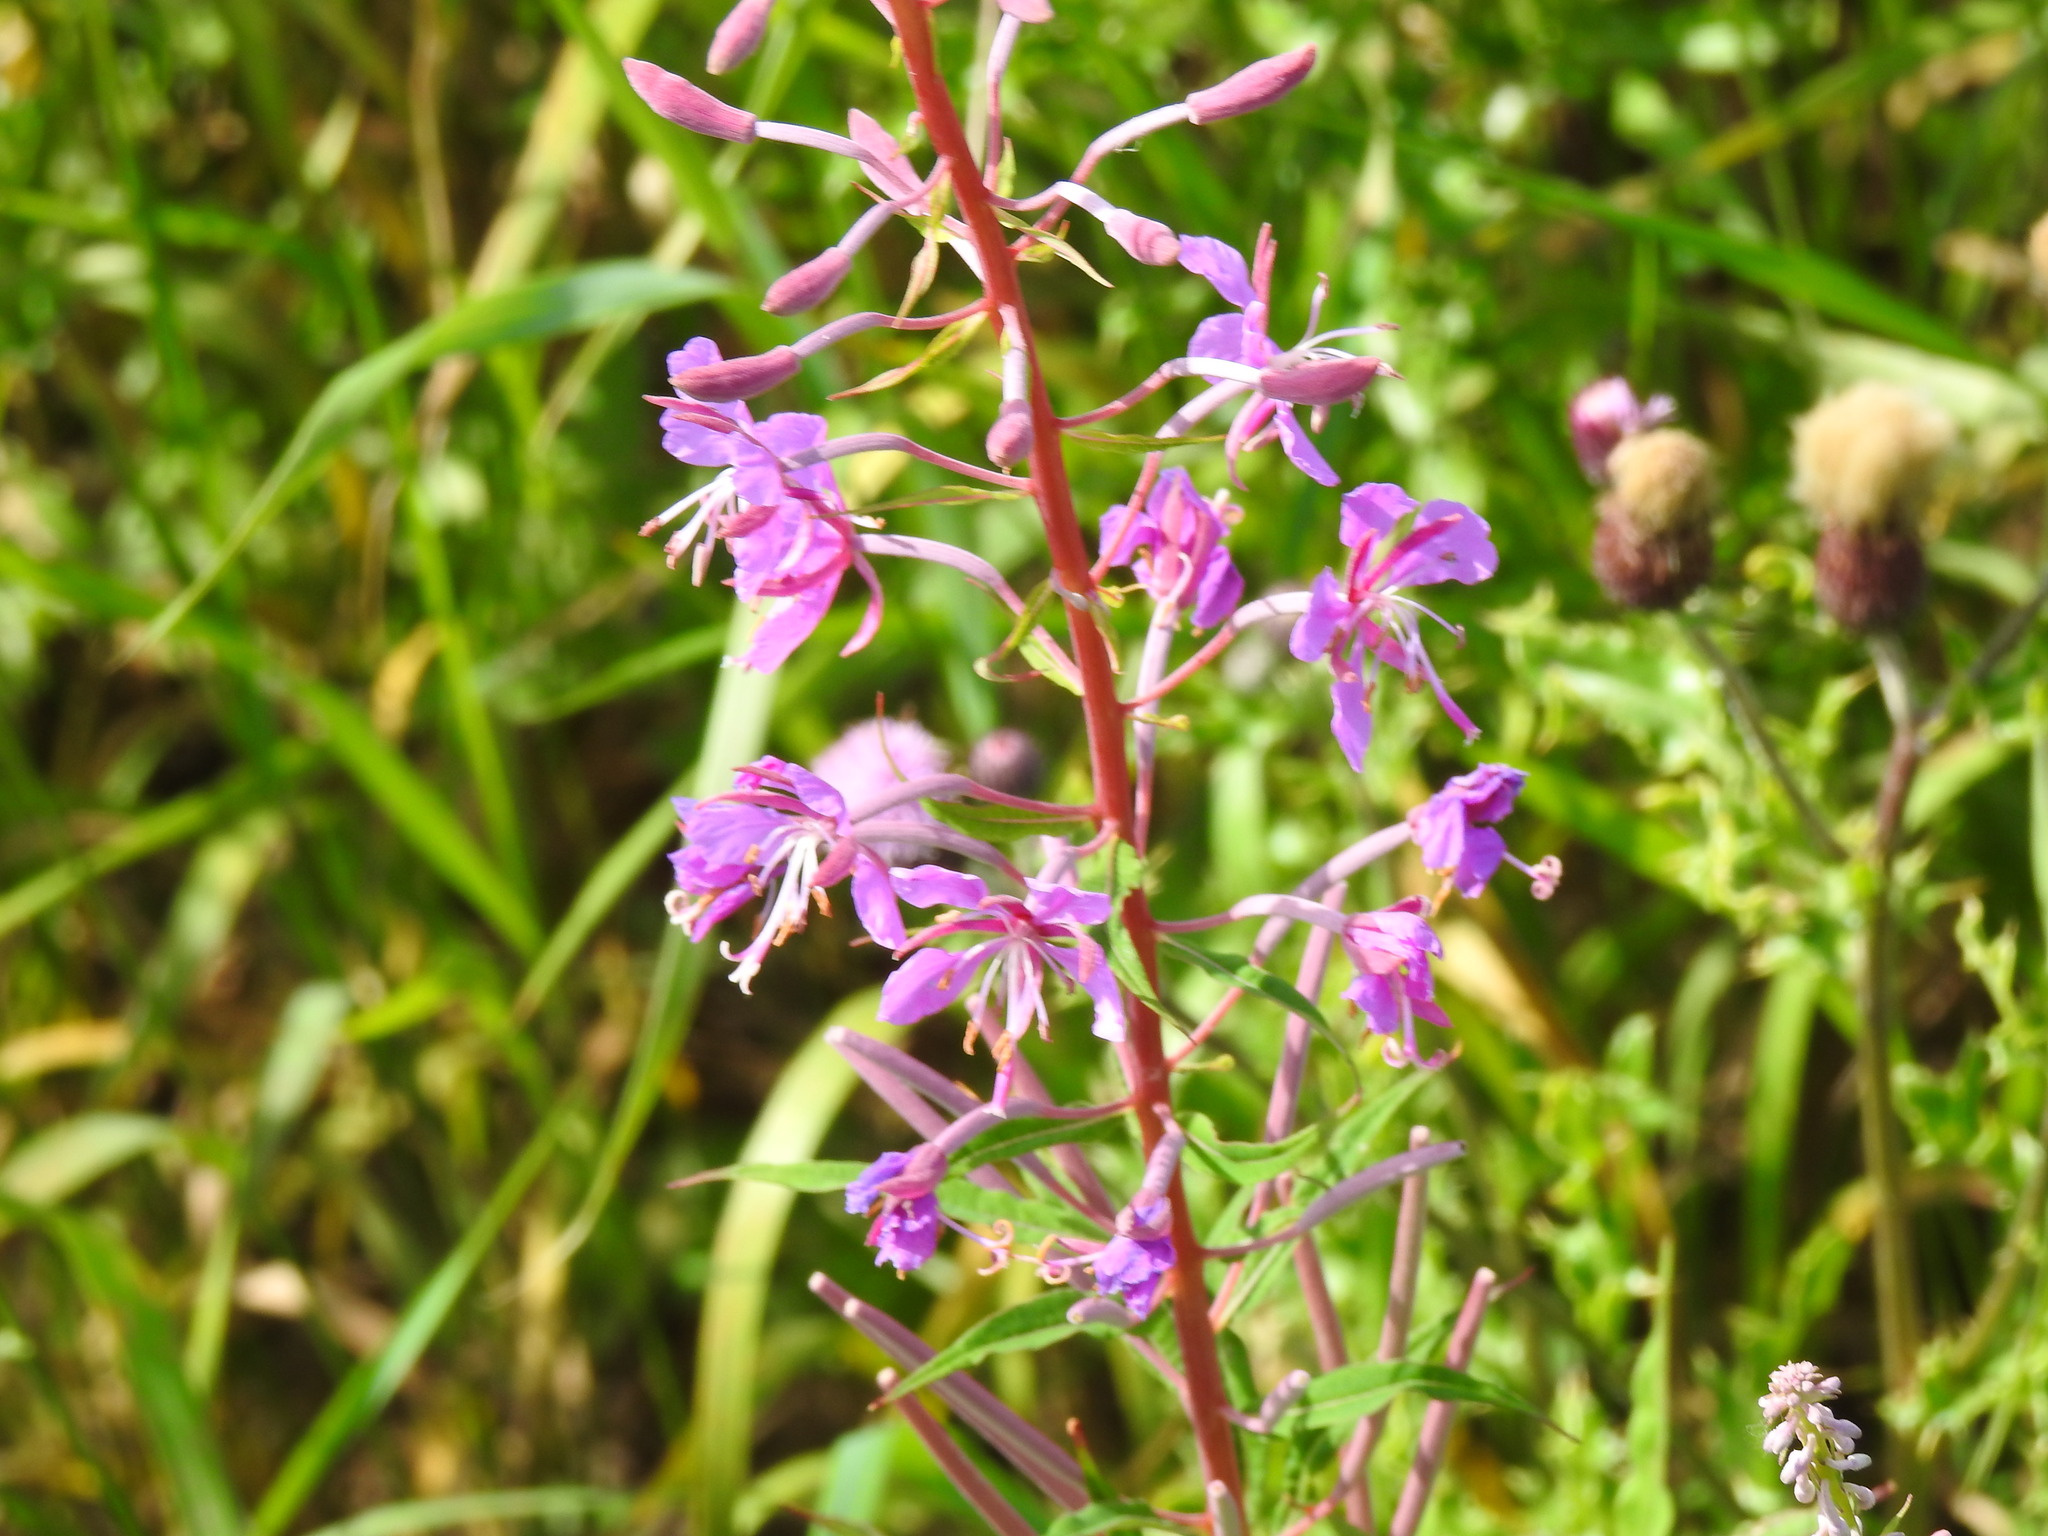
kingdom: Plantae
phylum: Tracheophyta
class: Magnoliopsida
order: Myrtales
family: Onagraceae
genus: Chamaenerion
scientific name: Chamaenerion angustifolium
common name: Fireweed
